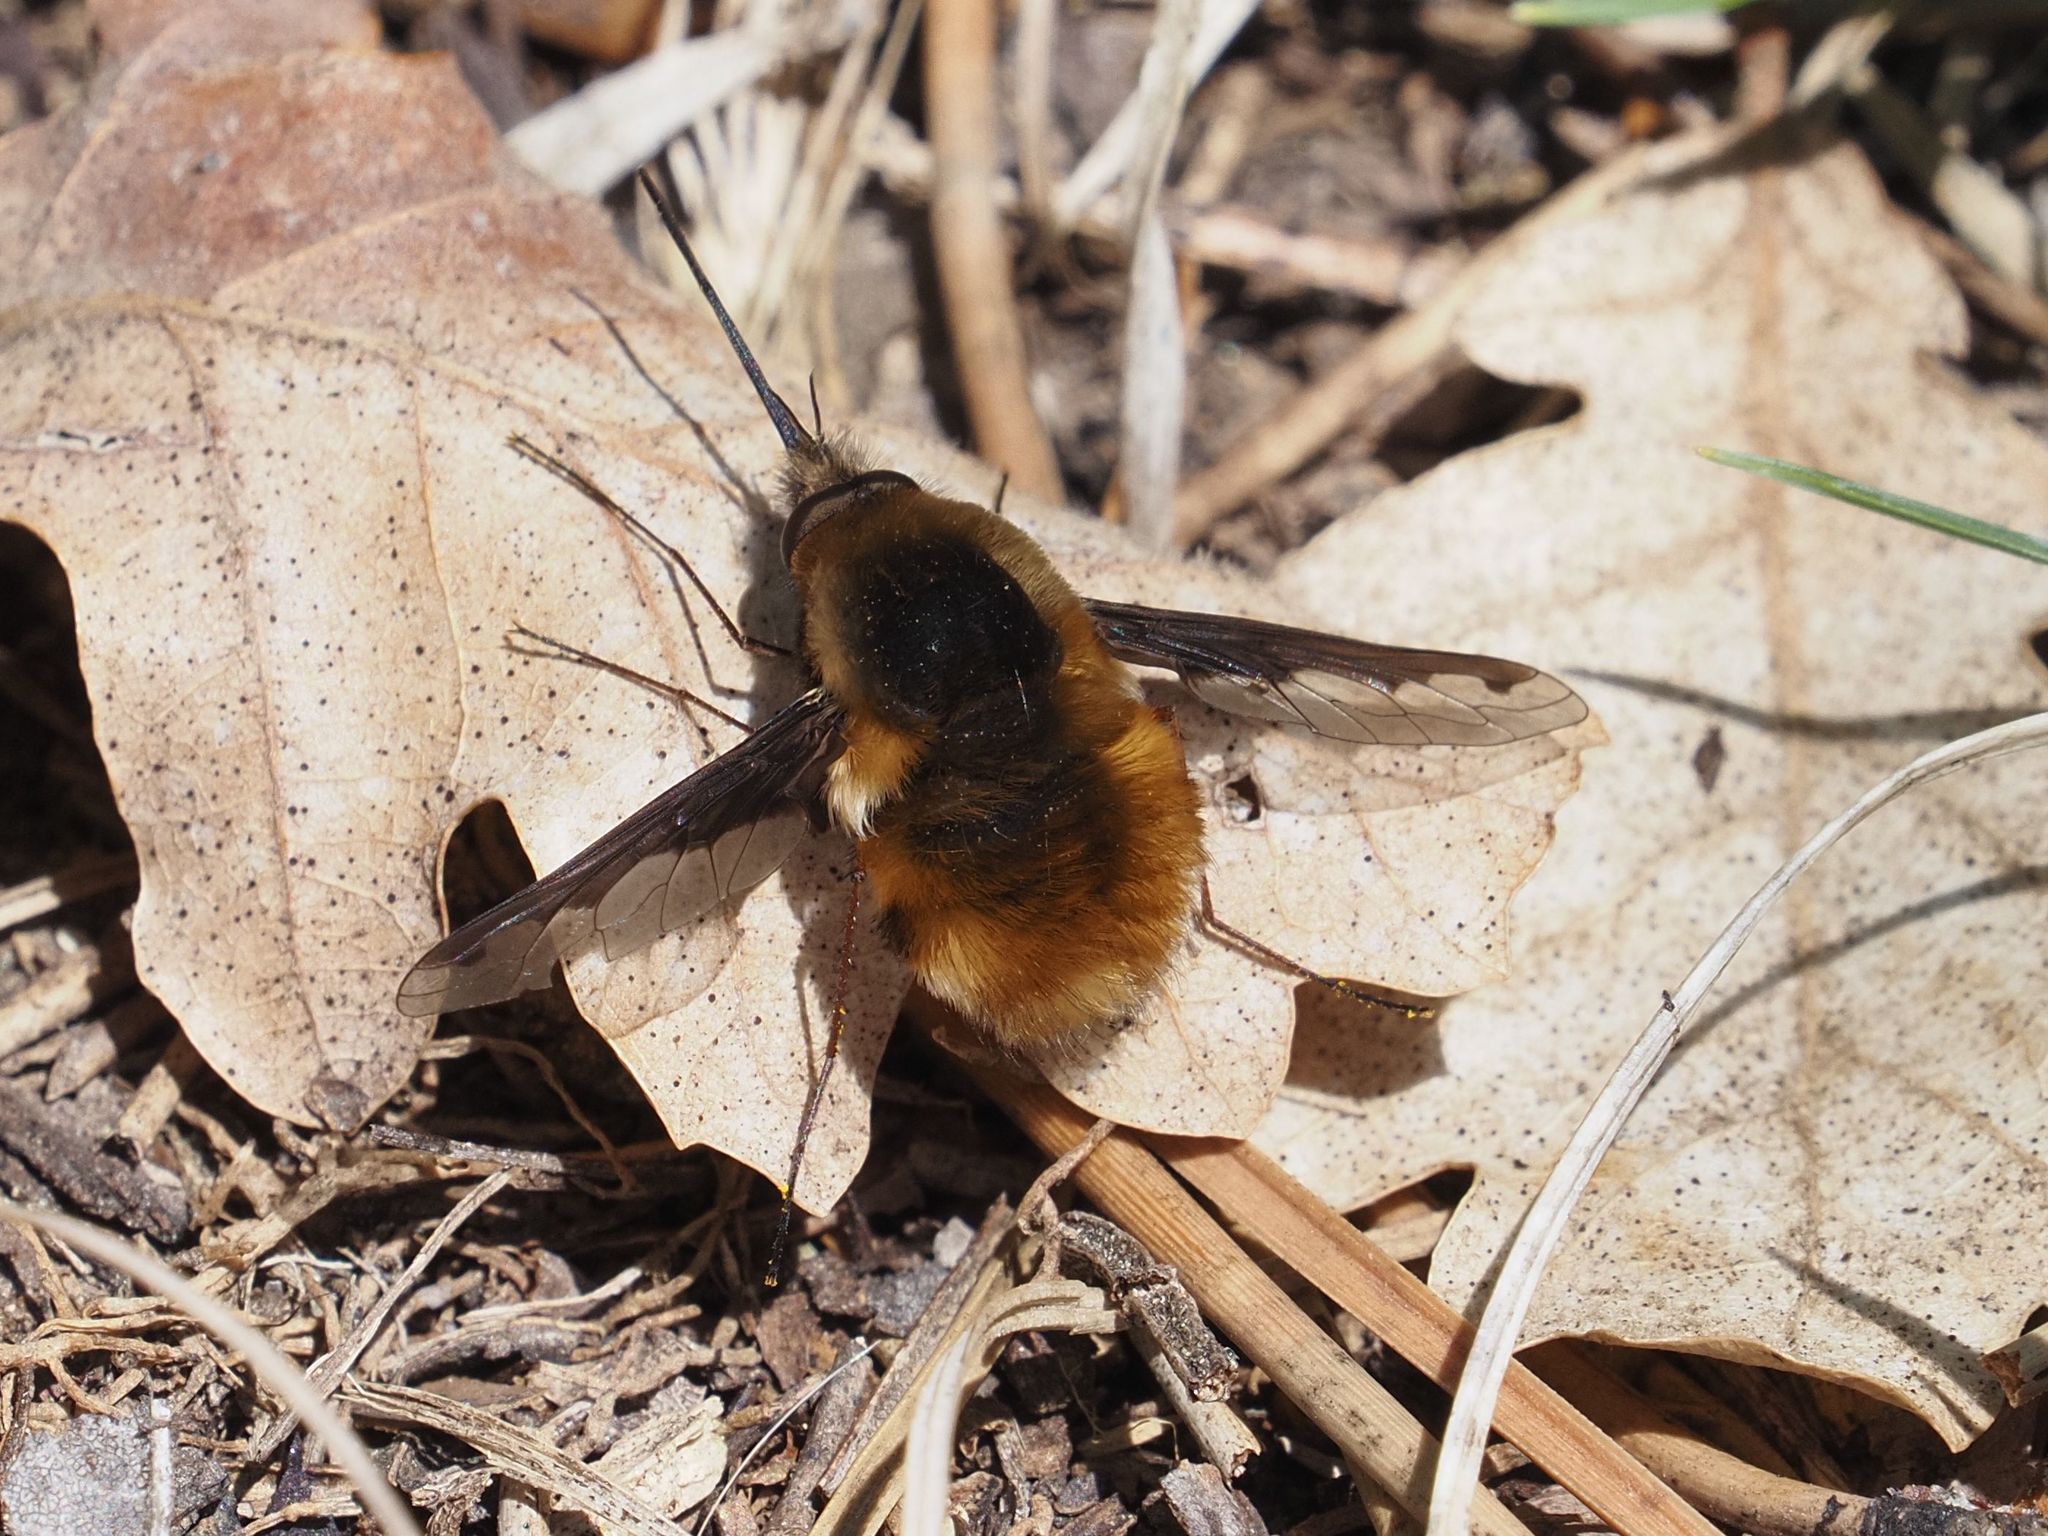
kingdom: Animalia
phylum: Arthropoda
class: Insecta
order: Diptera
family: Bombyliidae
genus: Bombylius
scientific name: Bombylius major
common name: Bee fly
